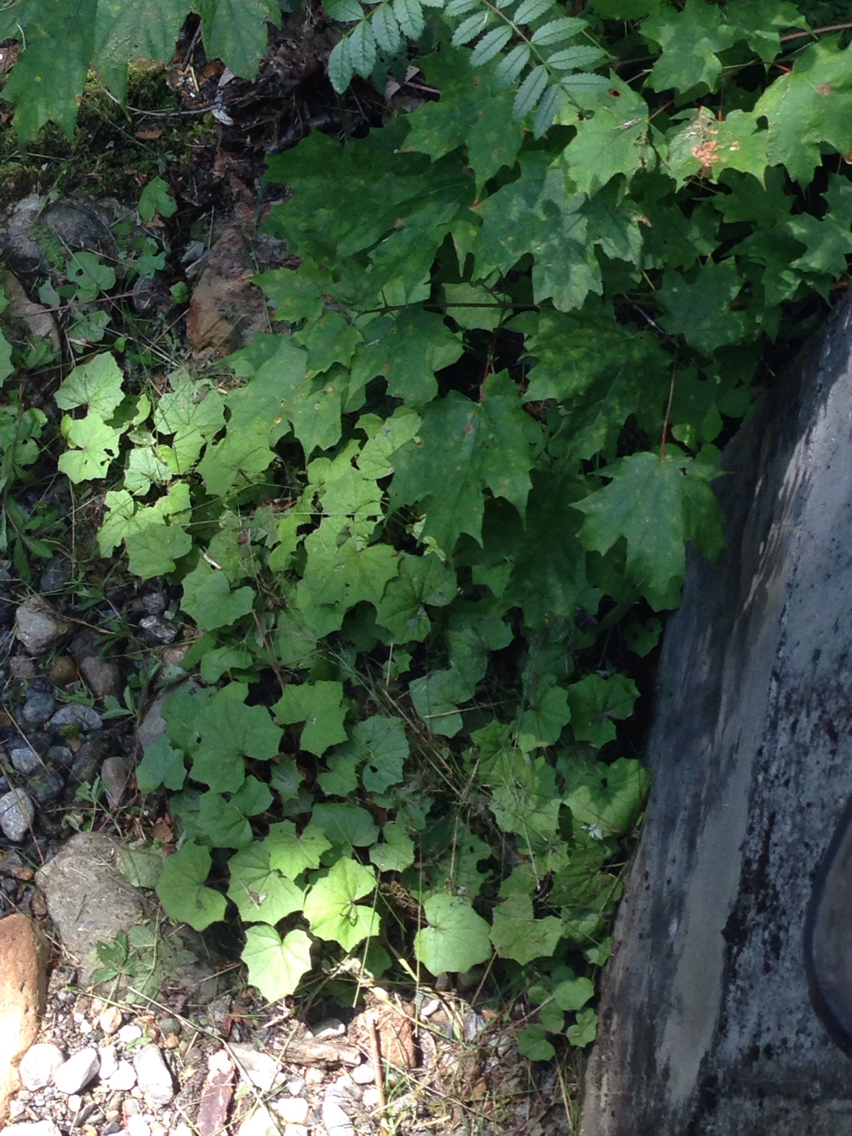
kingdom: Plantae
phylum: Tracheophyta
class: Magnoliopsida
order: Asterales
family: Asteraceae
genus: Tussilago
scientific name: Tussilago farfara
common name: Coltsfoot
